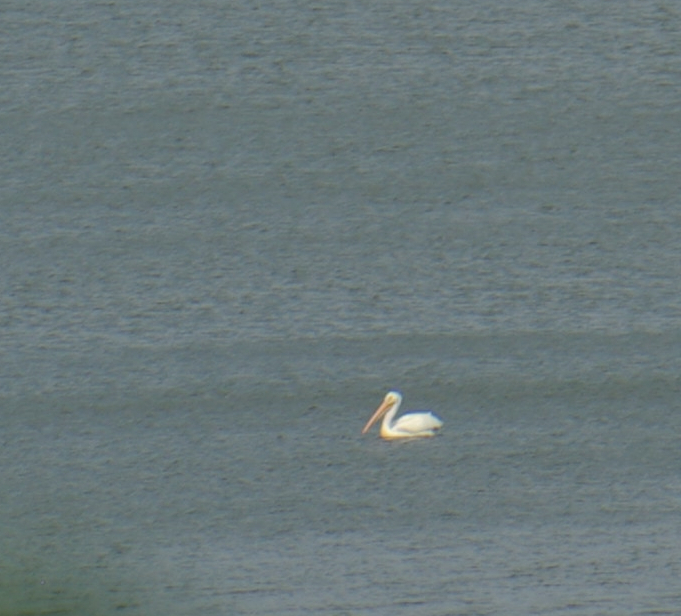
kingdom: Animalia
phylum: Chordata
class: Aves
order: Pelecaniformes
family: Pelecanidae
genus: Pelecanus
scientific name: Pelecanus erythrorhynchos
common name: American white pelican
